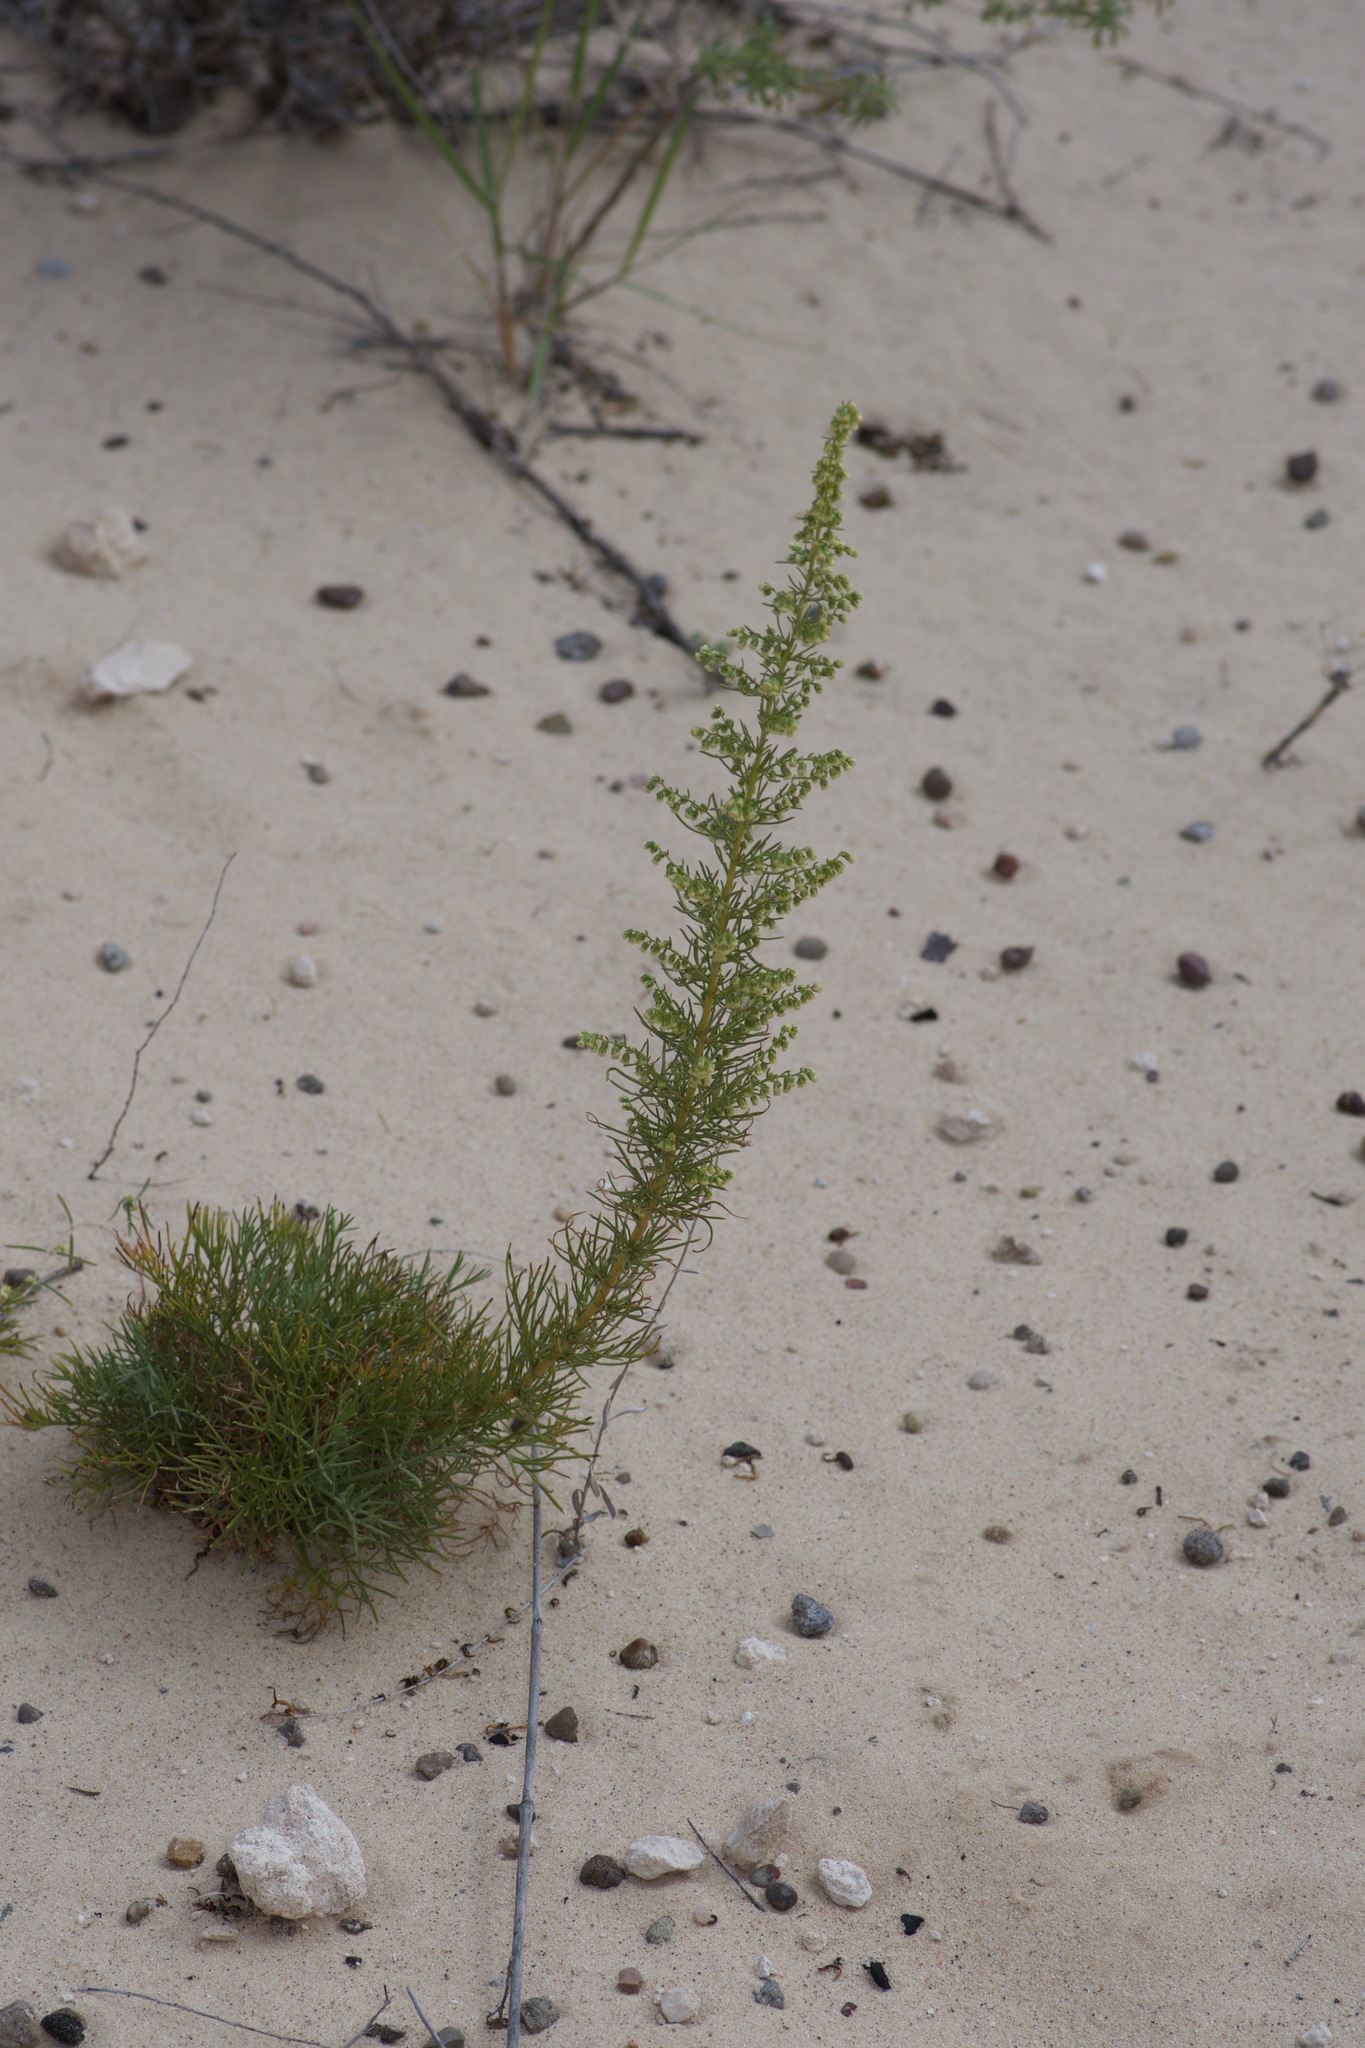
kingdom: Plantae
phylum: Tracheophyta
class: Magnoliopsida
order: Asterales
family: Asteraceae
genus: Artemisia
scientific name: Artemisia campestris
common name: Field wormwood
